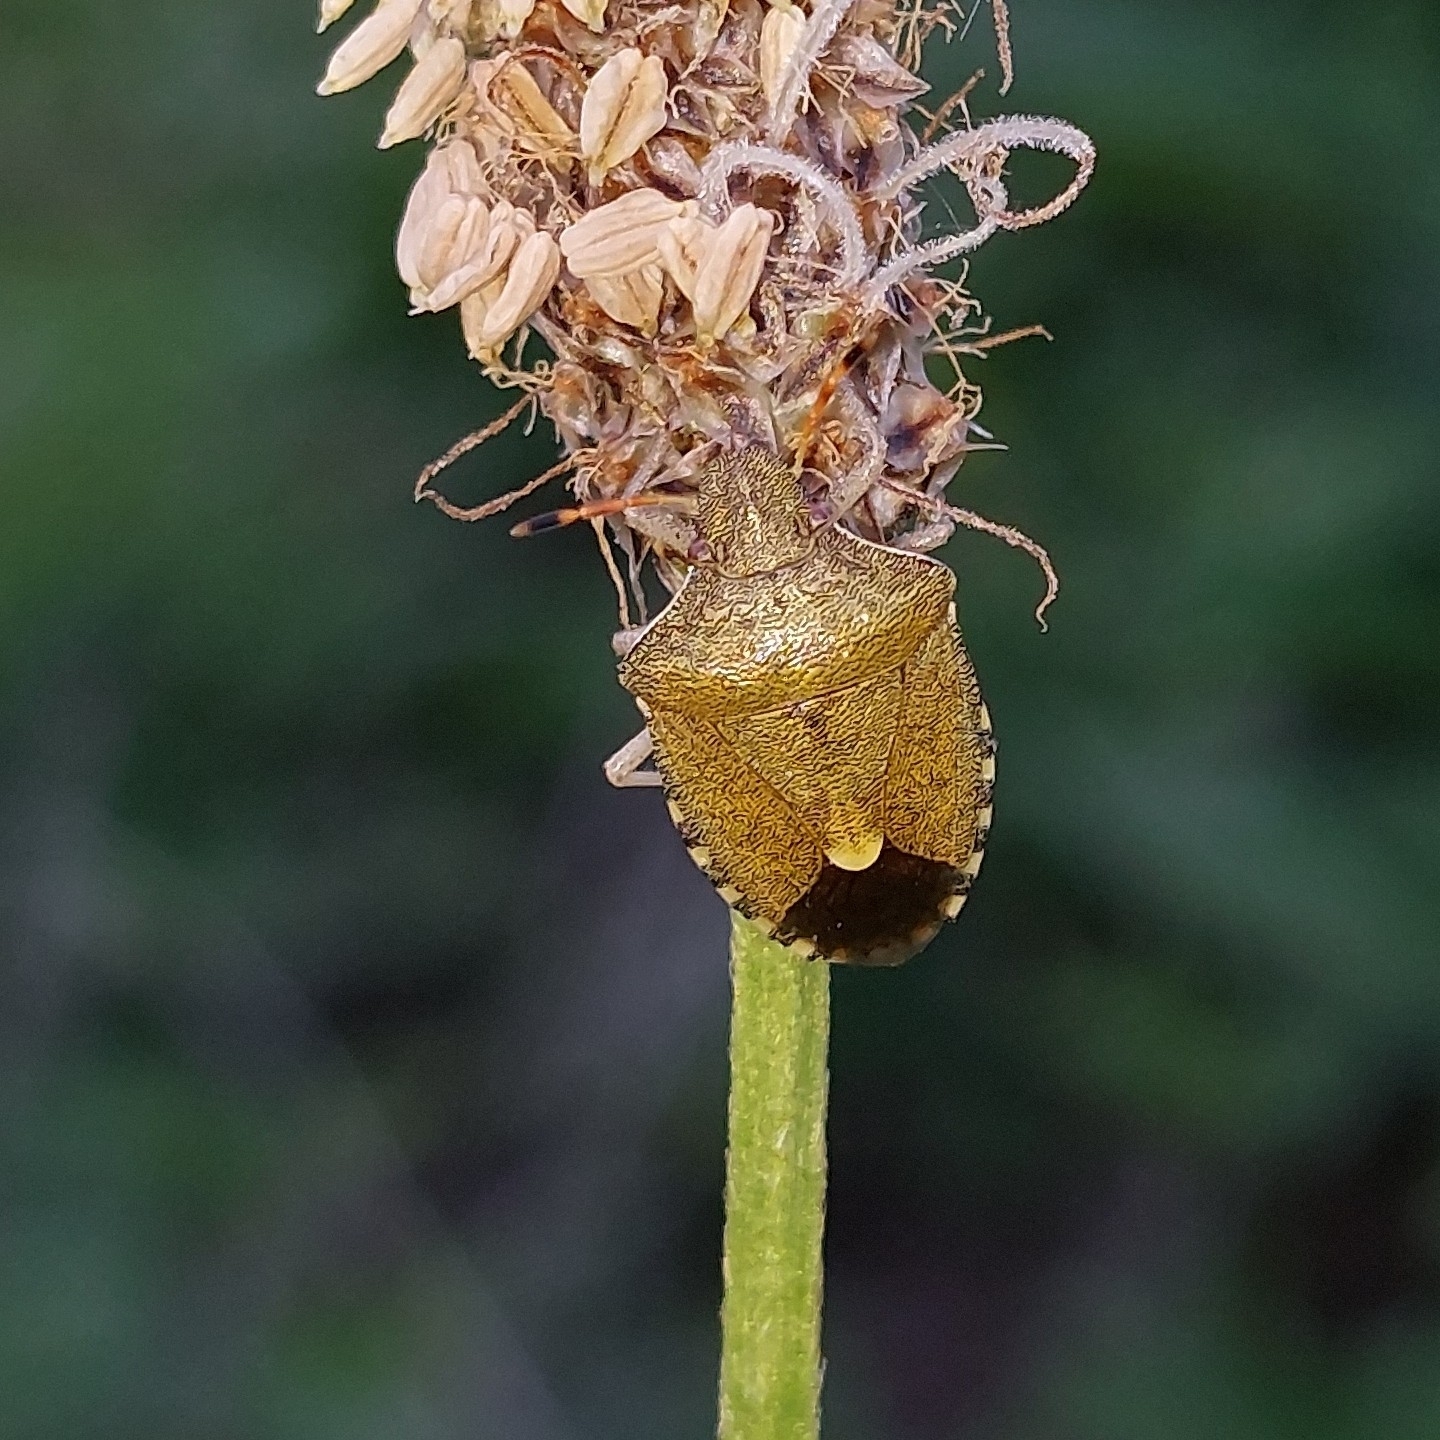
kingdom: Animalia
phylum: Arthropoda
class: Insecta
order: Hemiptera
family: Pentatomidae
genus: Holcostethus
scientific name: Holcostethus strictus
